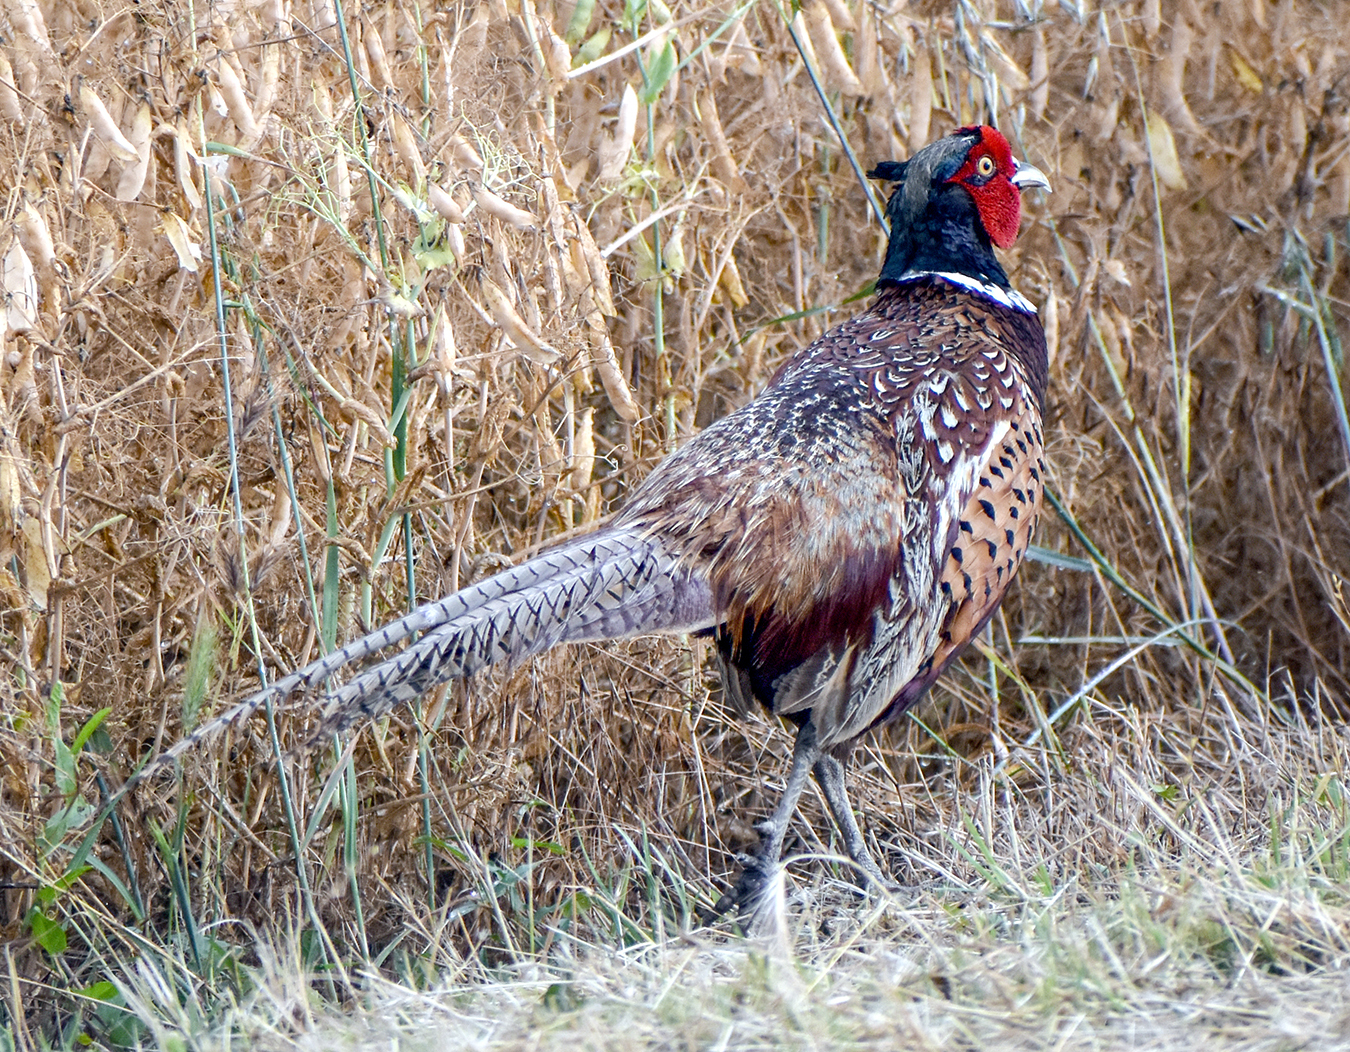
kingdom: Animalia
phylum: Chordata
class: Aves
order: Galliformes
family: Phasianidae
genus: Phasianus
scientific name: Phasianus colchicus
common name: Common pheasant
